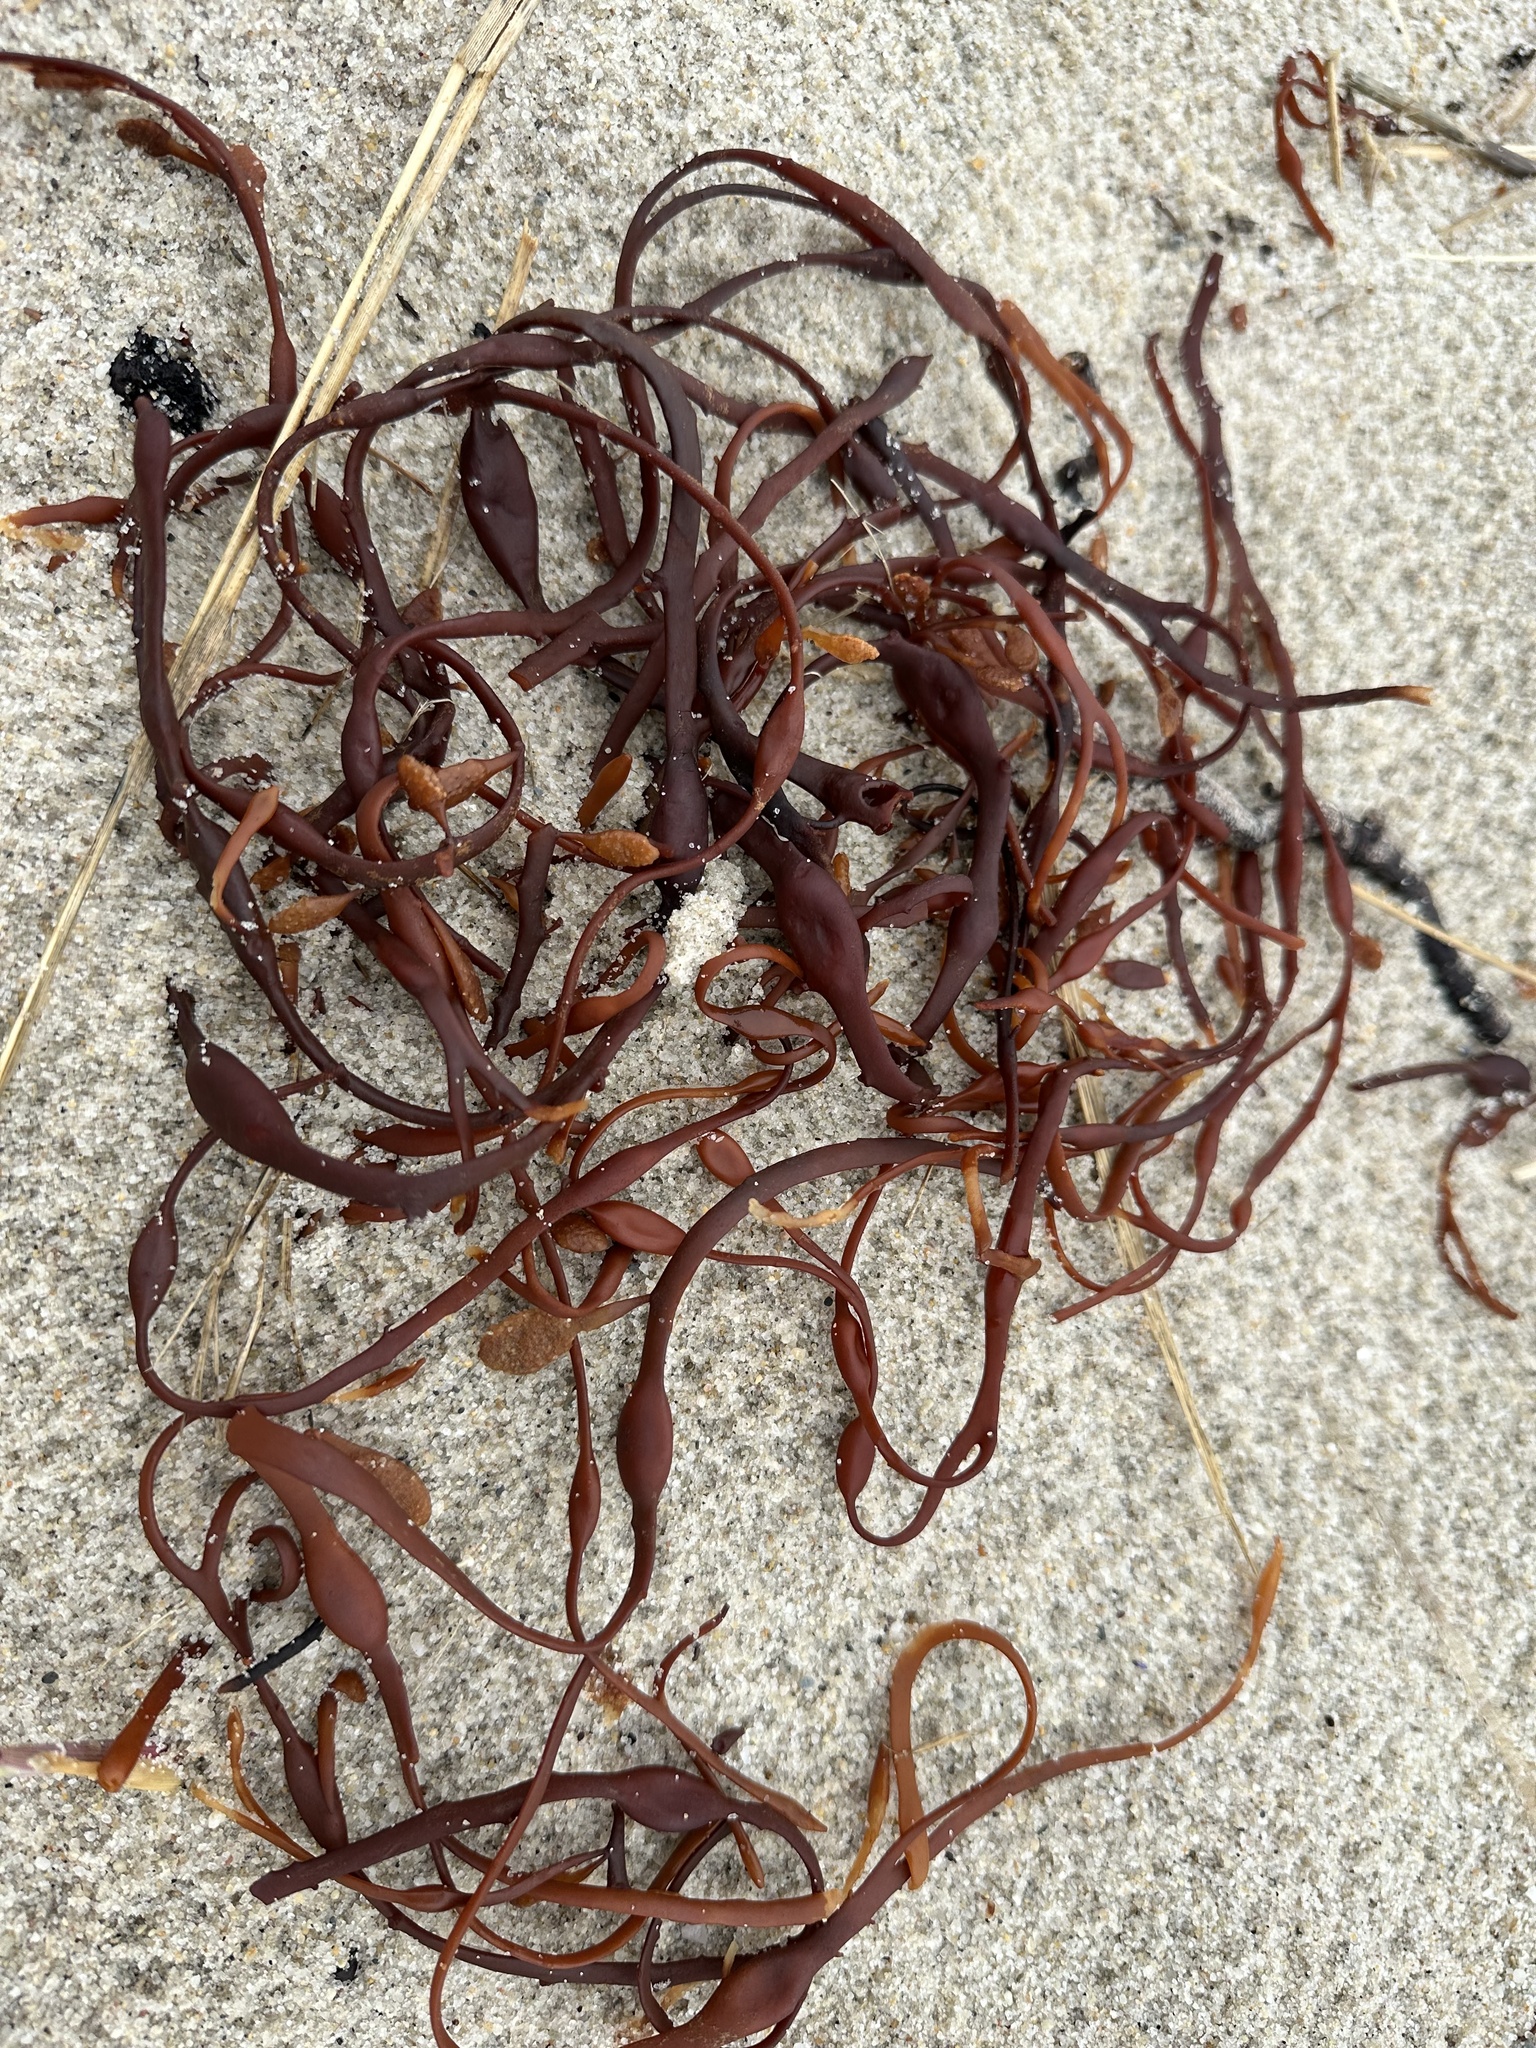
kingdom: Chromista
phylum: Ochrophyta
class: Phaeophyceae
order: Fucales
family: Fucaceae
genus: Ascophyllum
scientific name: Ascophyllum nodosum
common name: Knotted wrack
